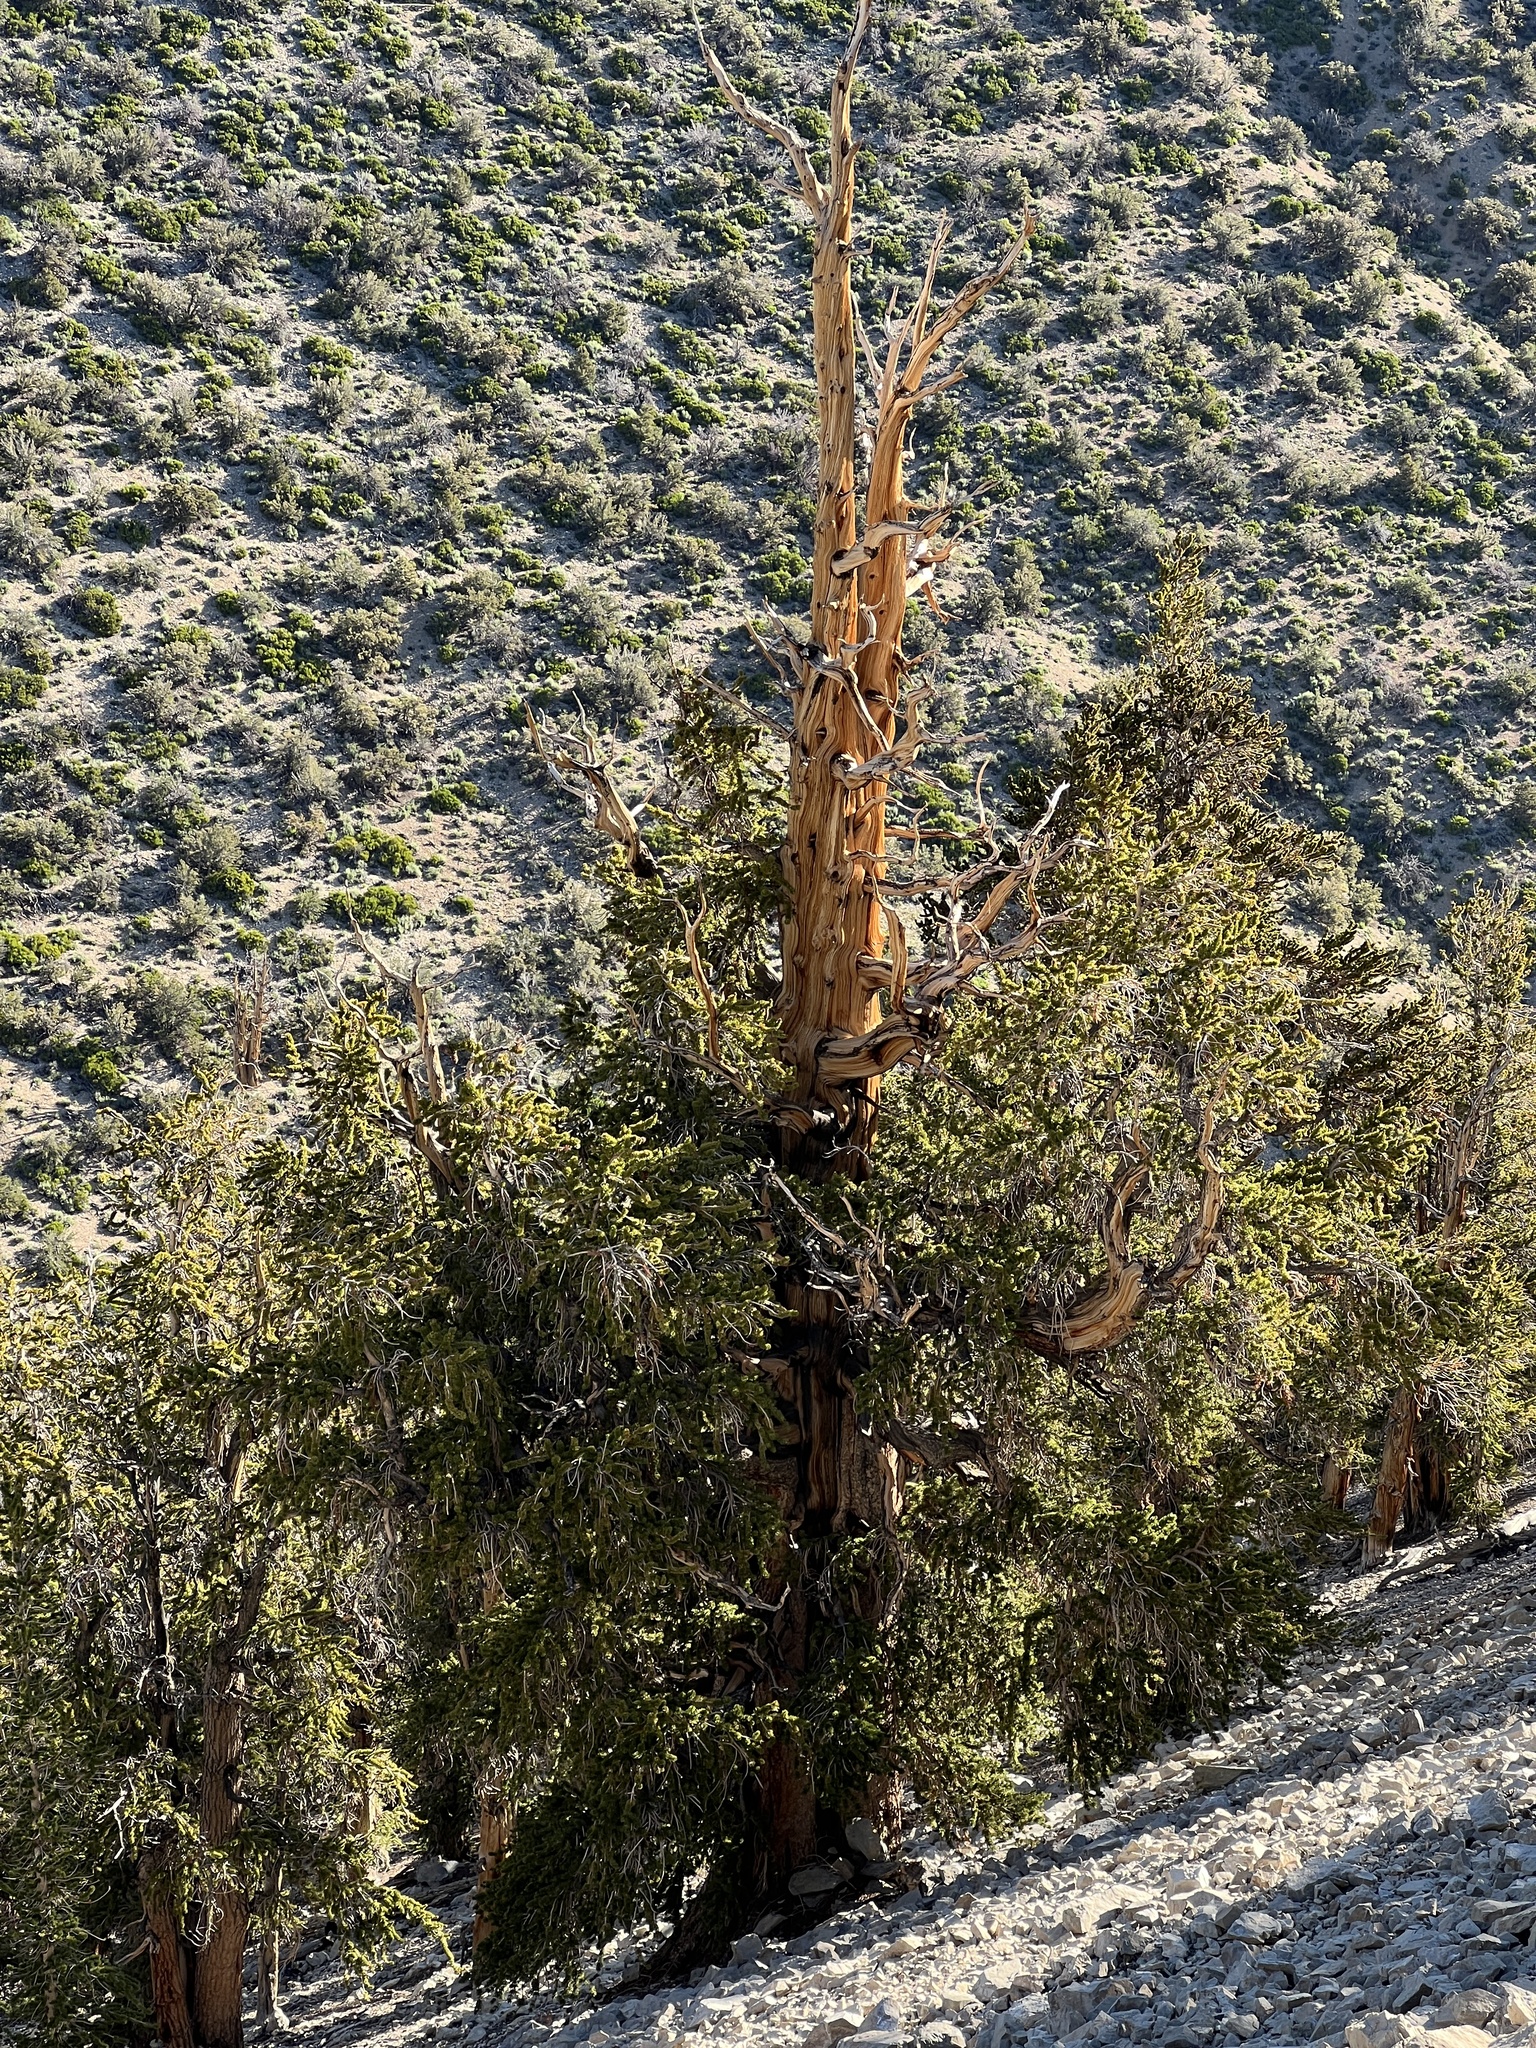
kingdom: Plantae
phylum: Tracheophyta
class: Pinopsida
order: Pinales
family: Pinaceae
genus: Pinus
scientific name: Pinus longaeva
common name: Intermountain bristlecone pine
